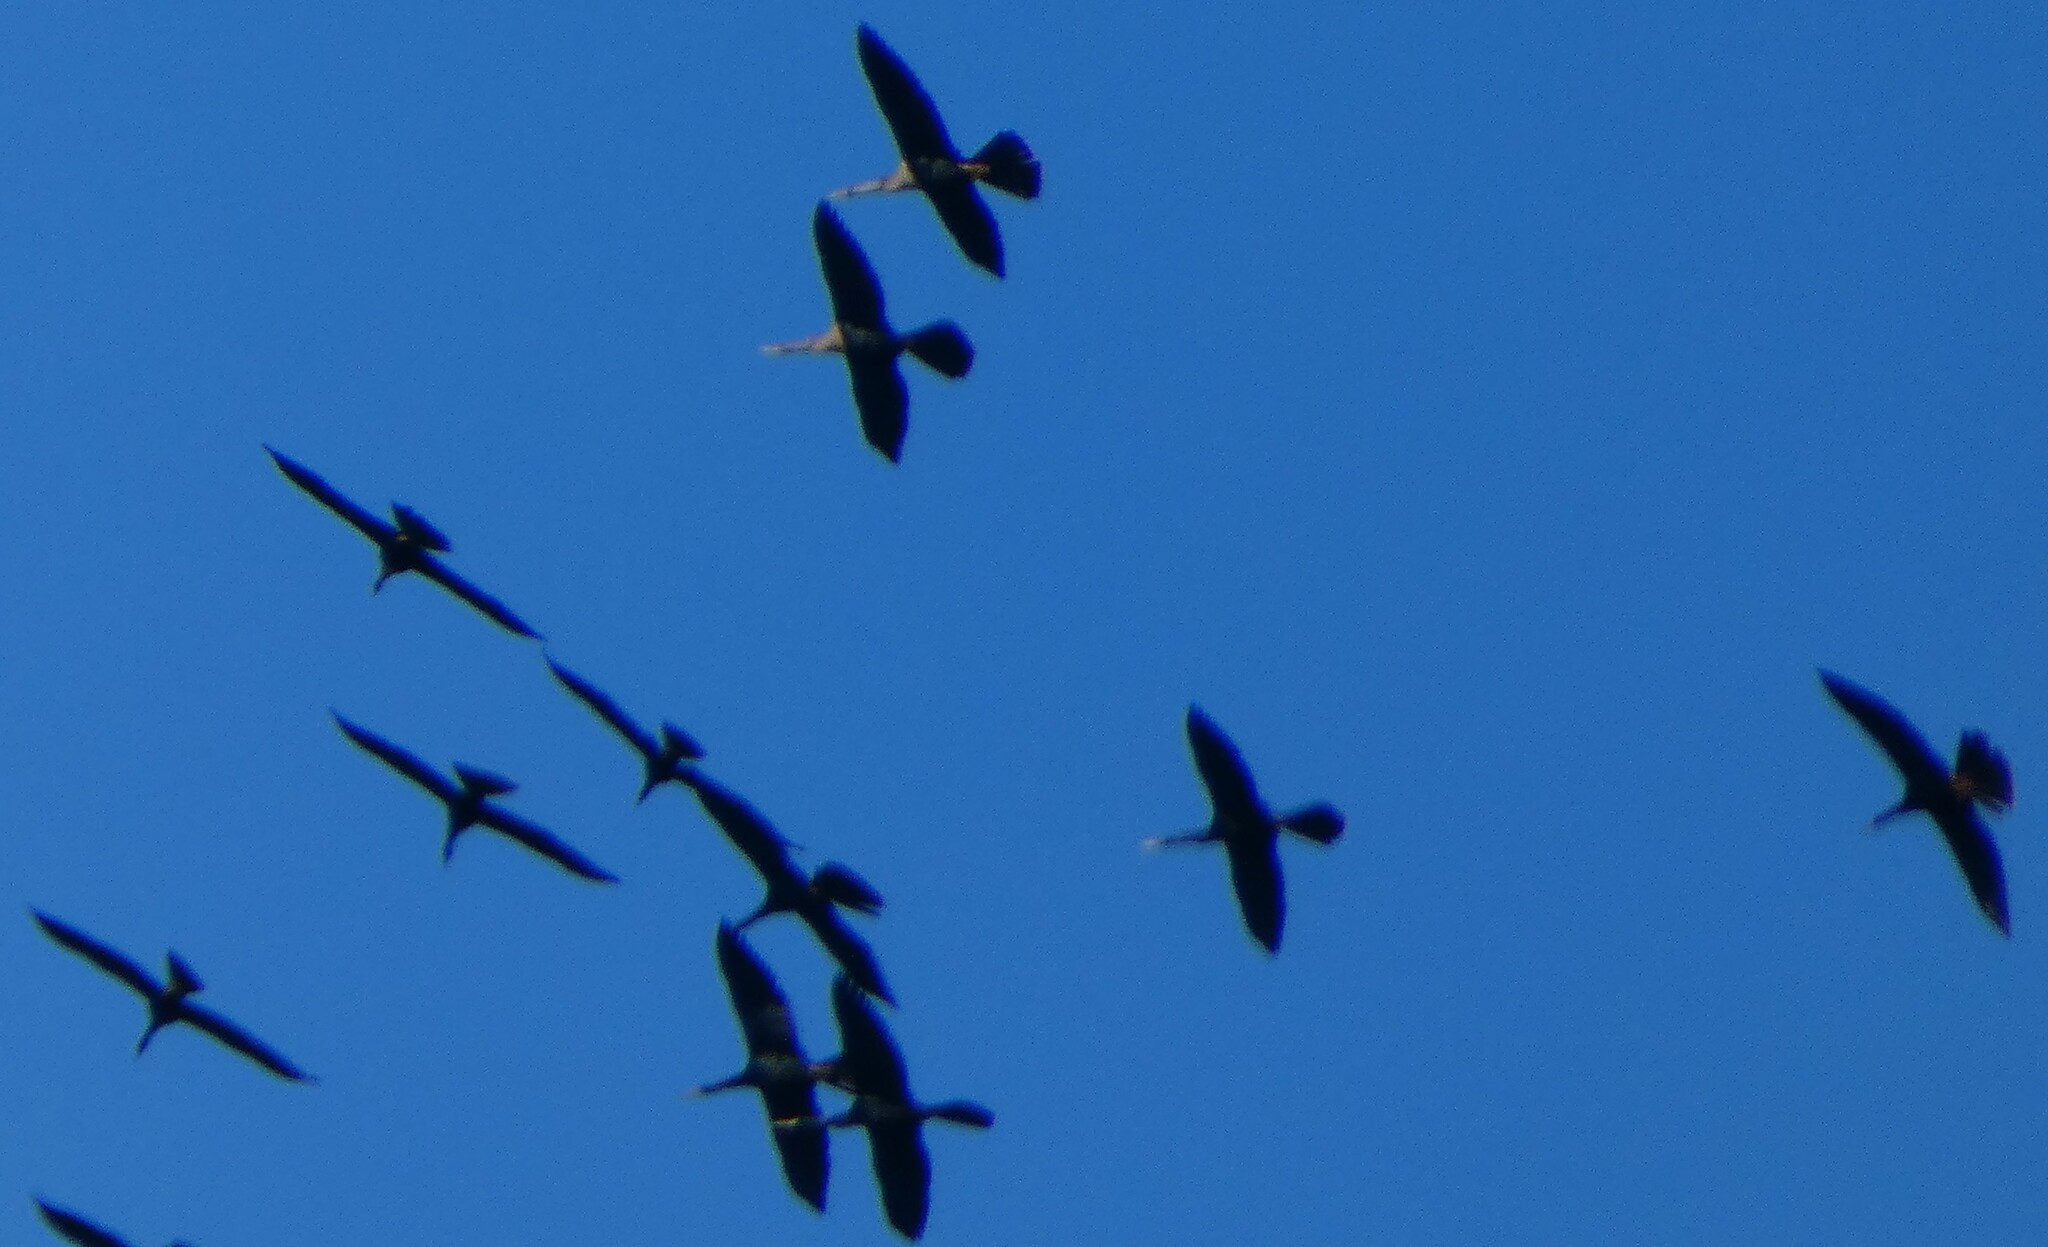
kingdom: Animalia
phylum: Chordata
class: Aves
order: Suliformes
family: Anhingidae
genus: Anhinga
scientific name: Anhinga anhinga
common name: Anhinga
